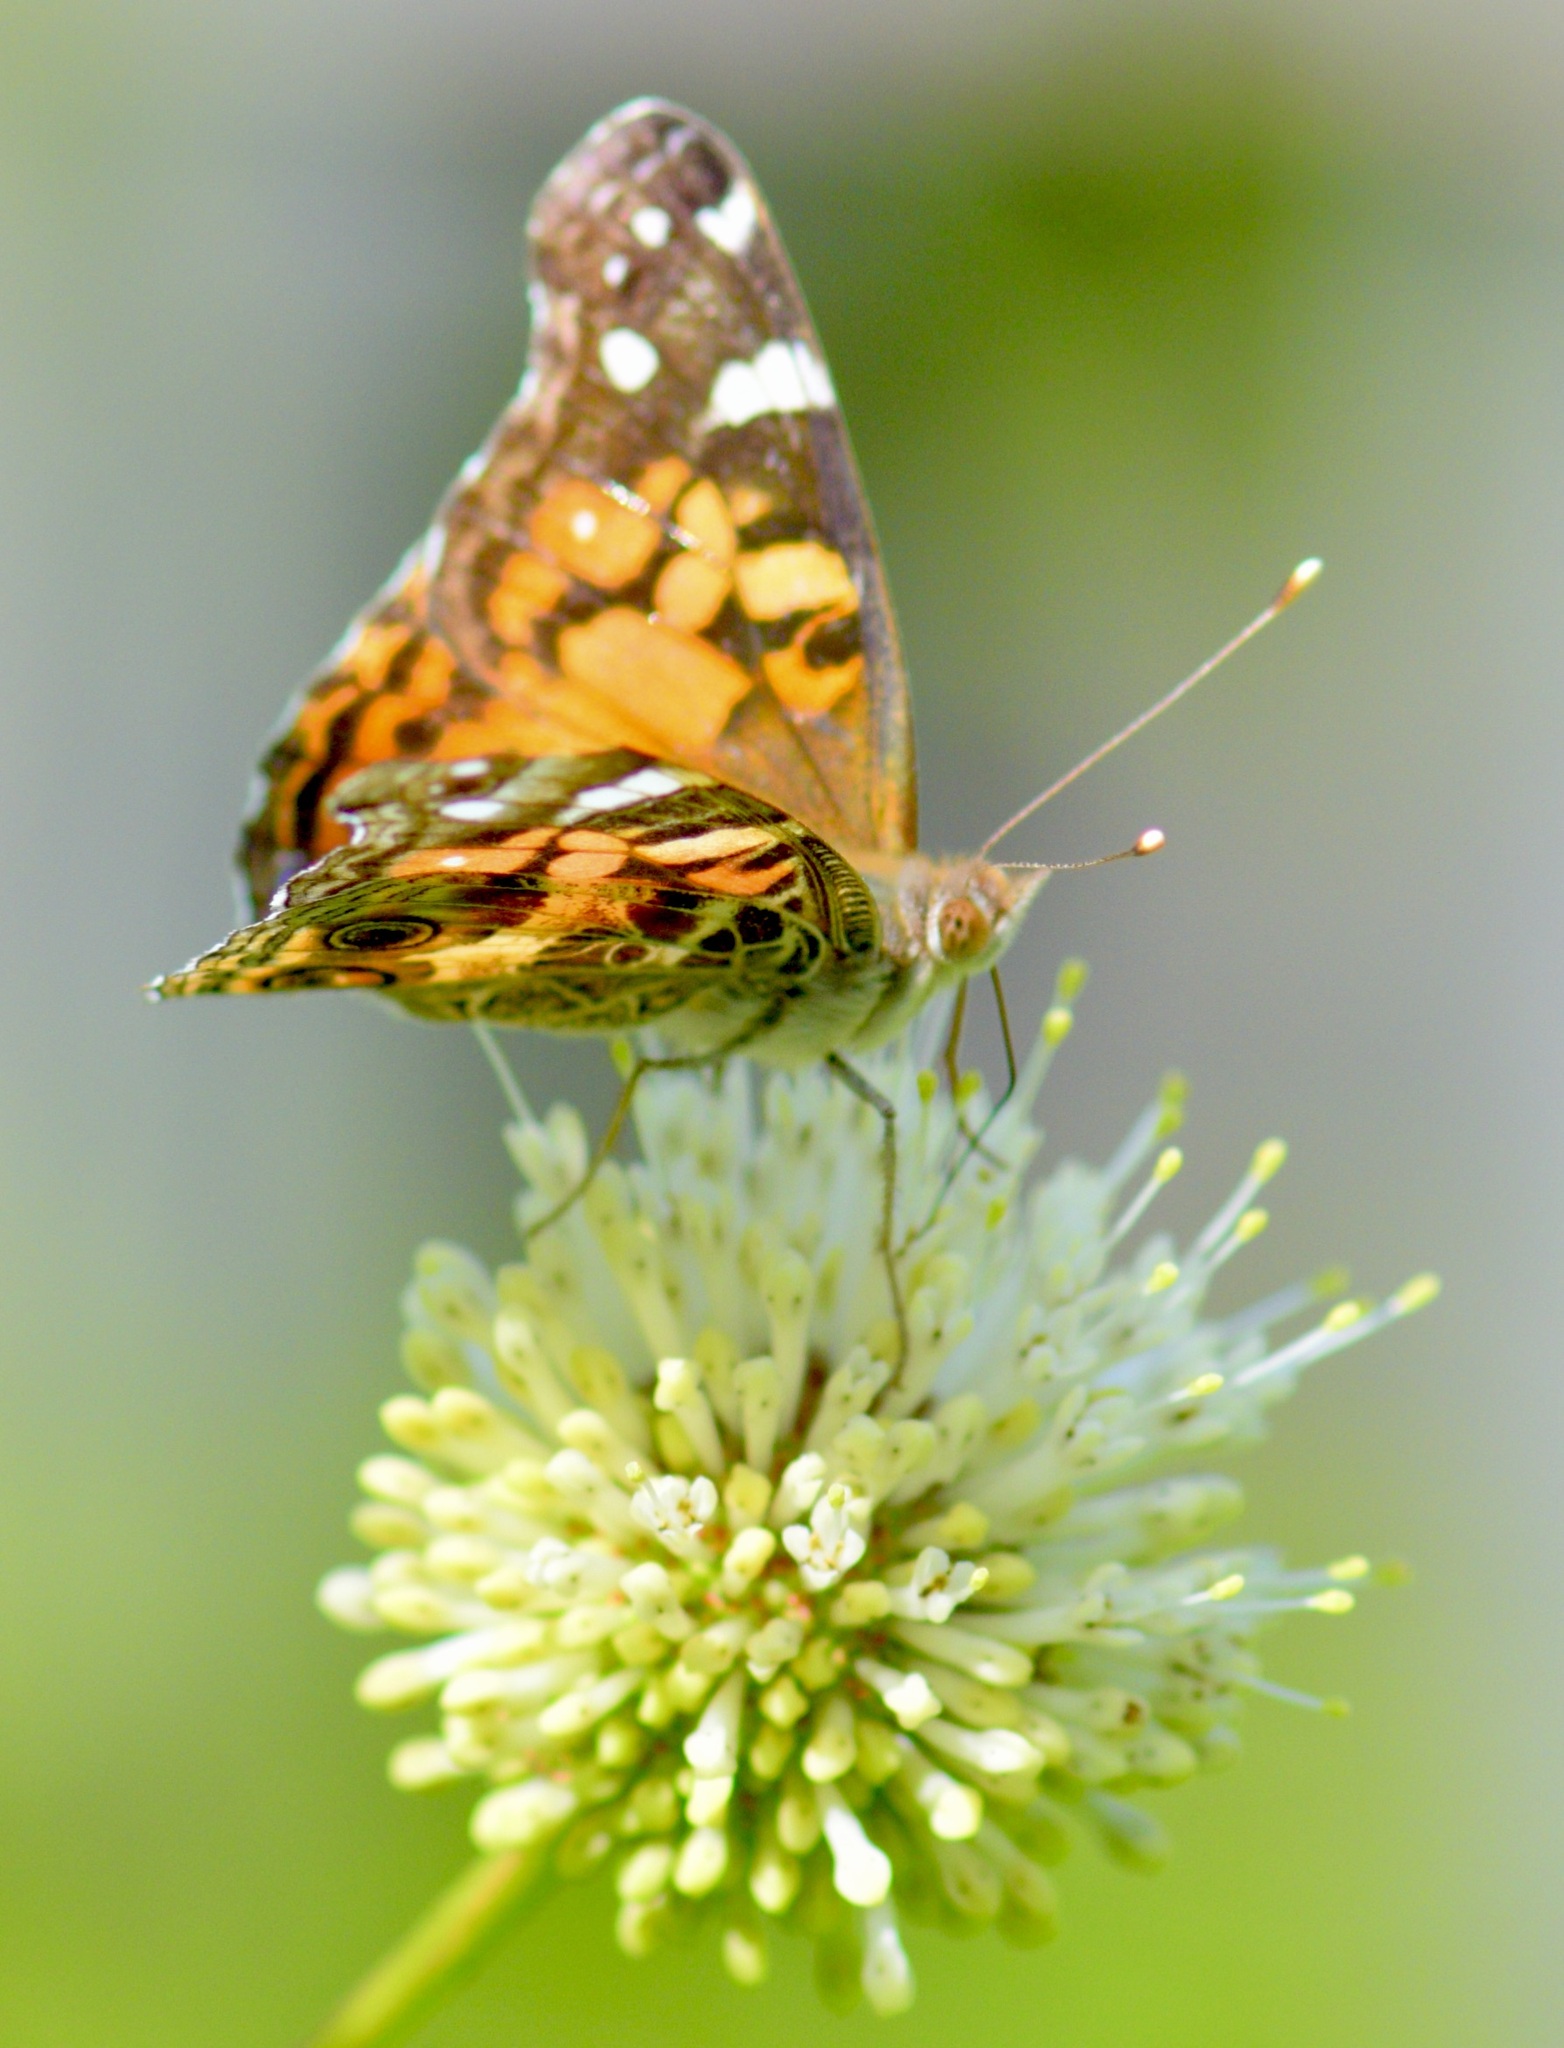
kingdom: Animalia
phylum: Arthropoda
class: Insecta
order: Lepidoptera
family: Nymphalidae
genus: Vanessa
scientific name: Vanessa virginiensis
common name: American lady
